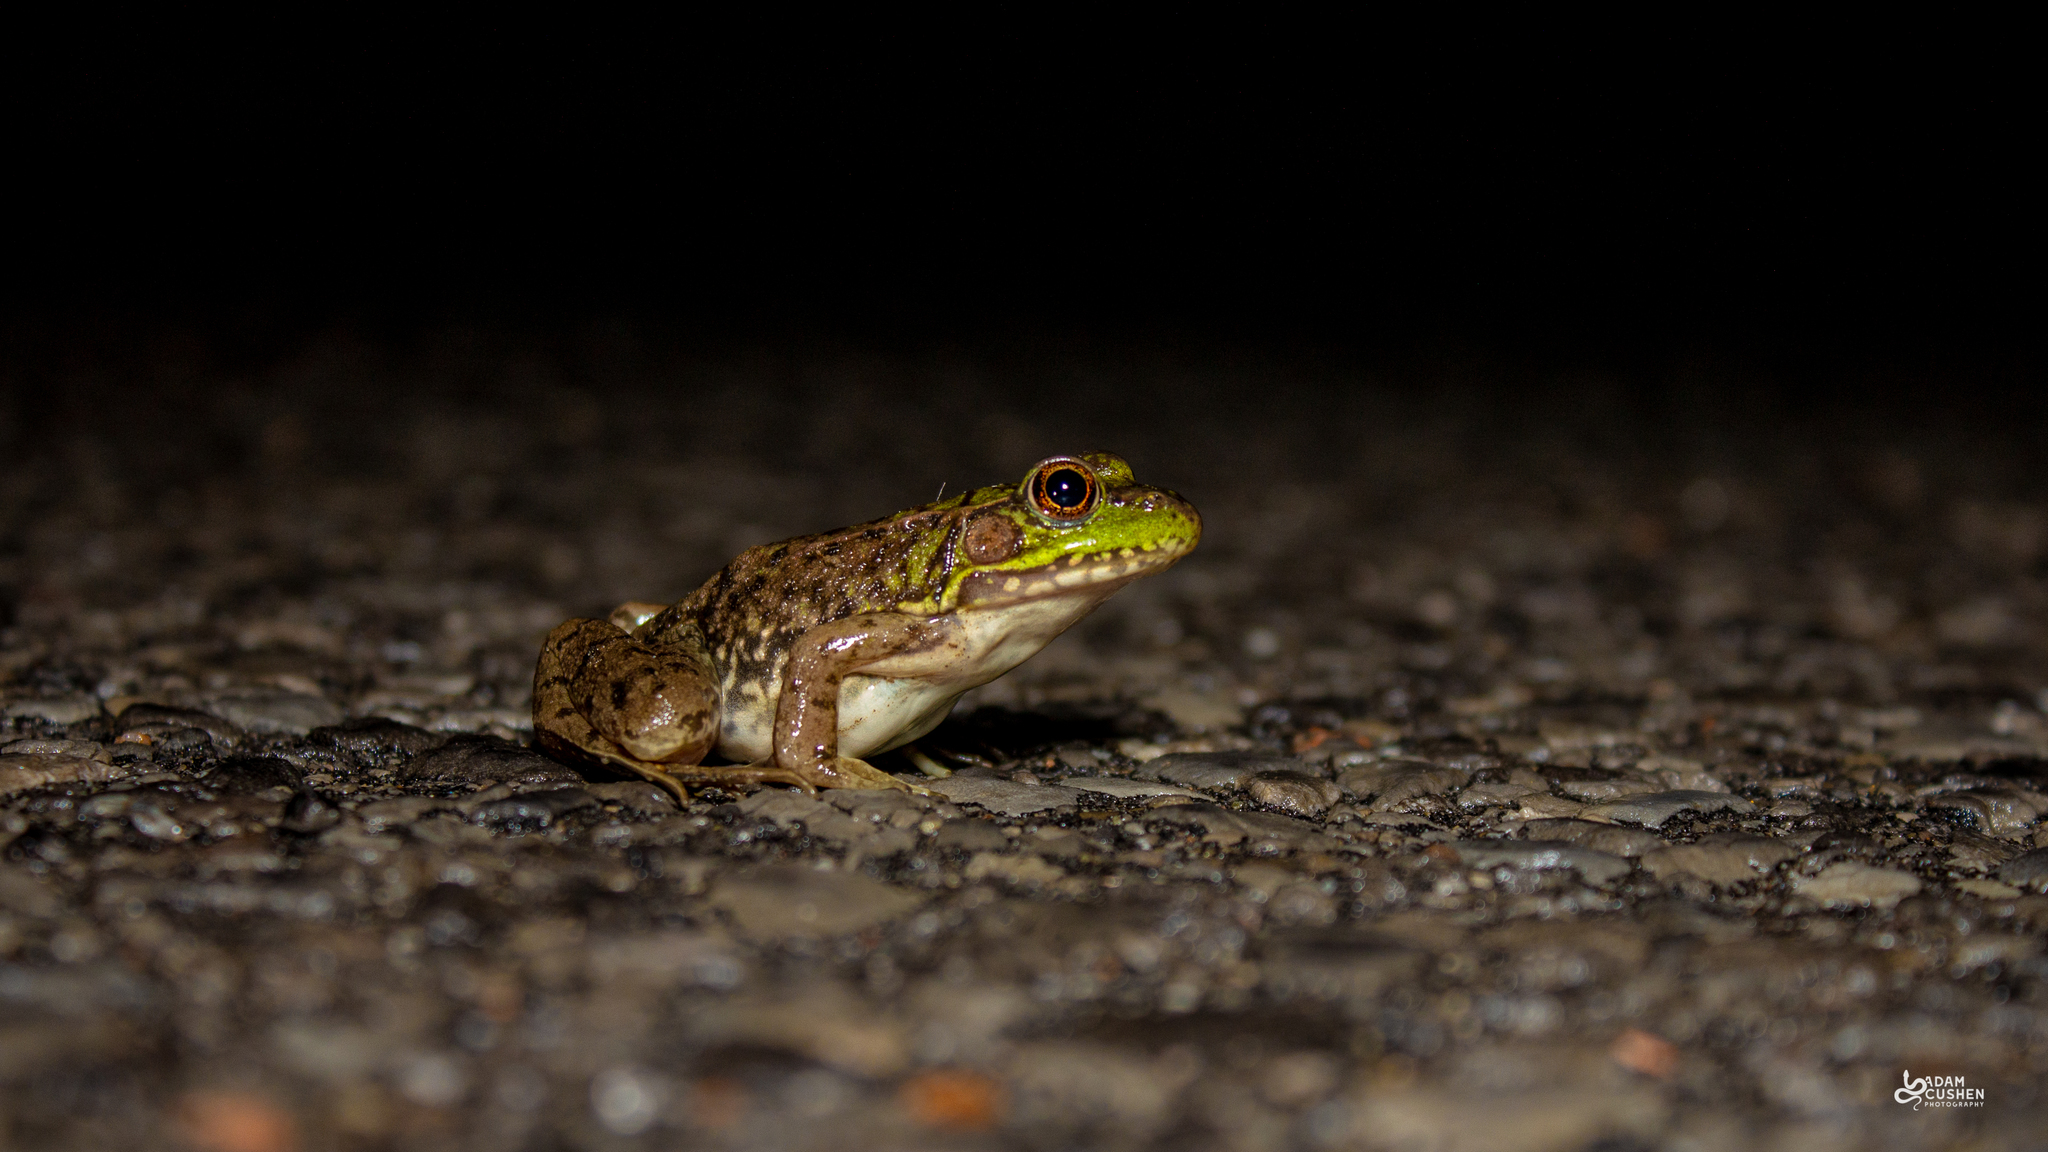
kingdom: Animalia
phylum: Chordata
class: Amphibia
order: Anura
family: Ranidae
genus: Lithobates
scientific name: Lithobates clamitans
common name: Green frog
